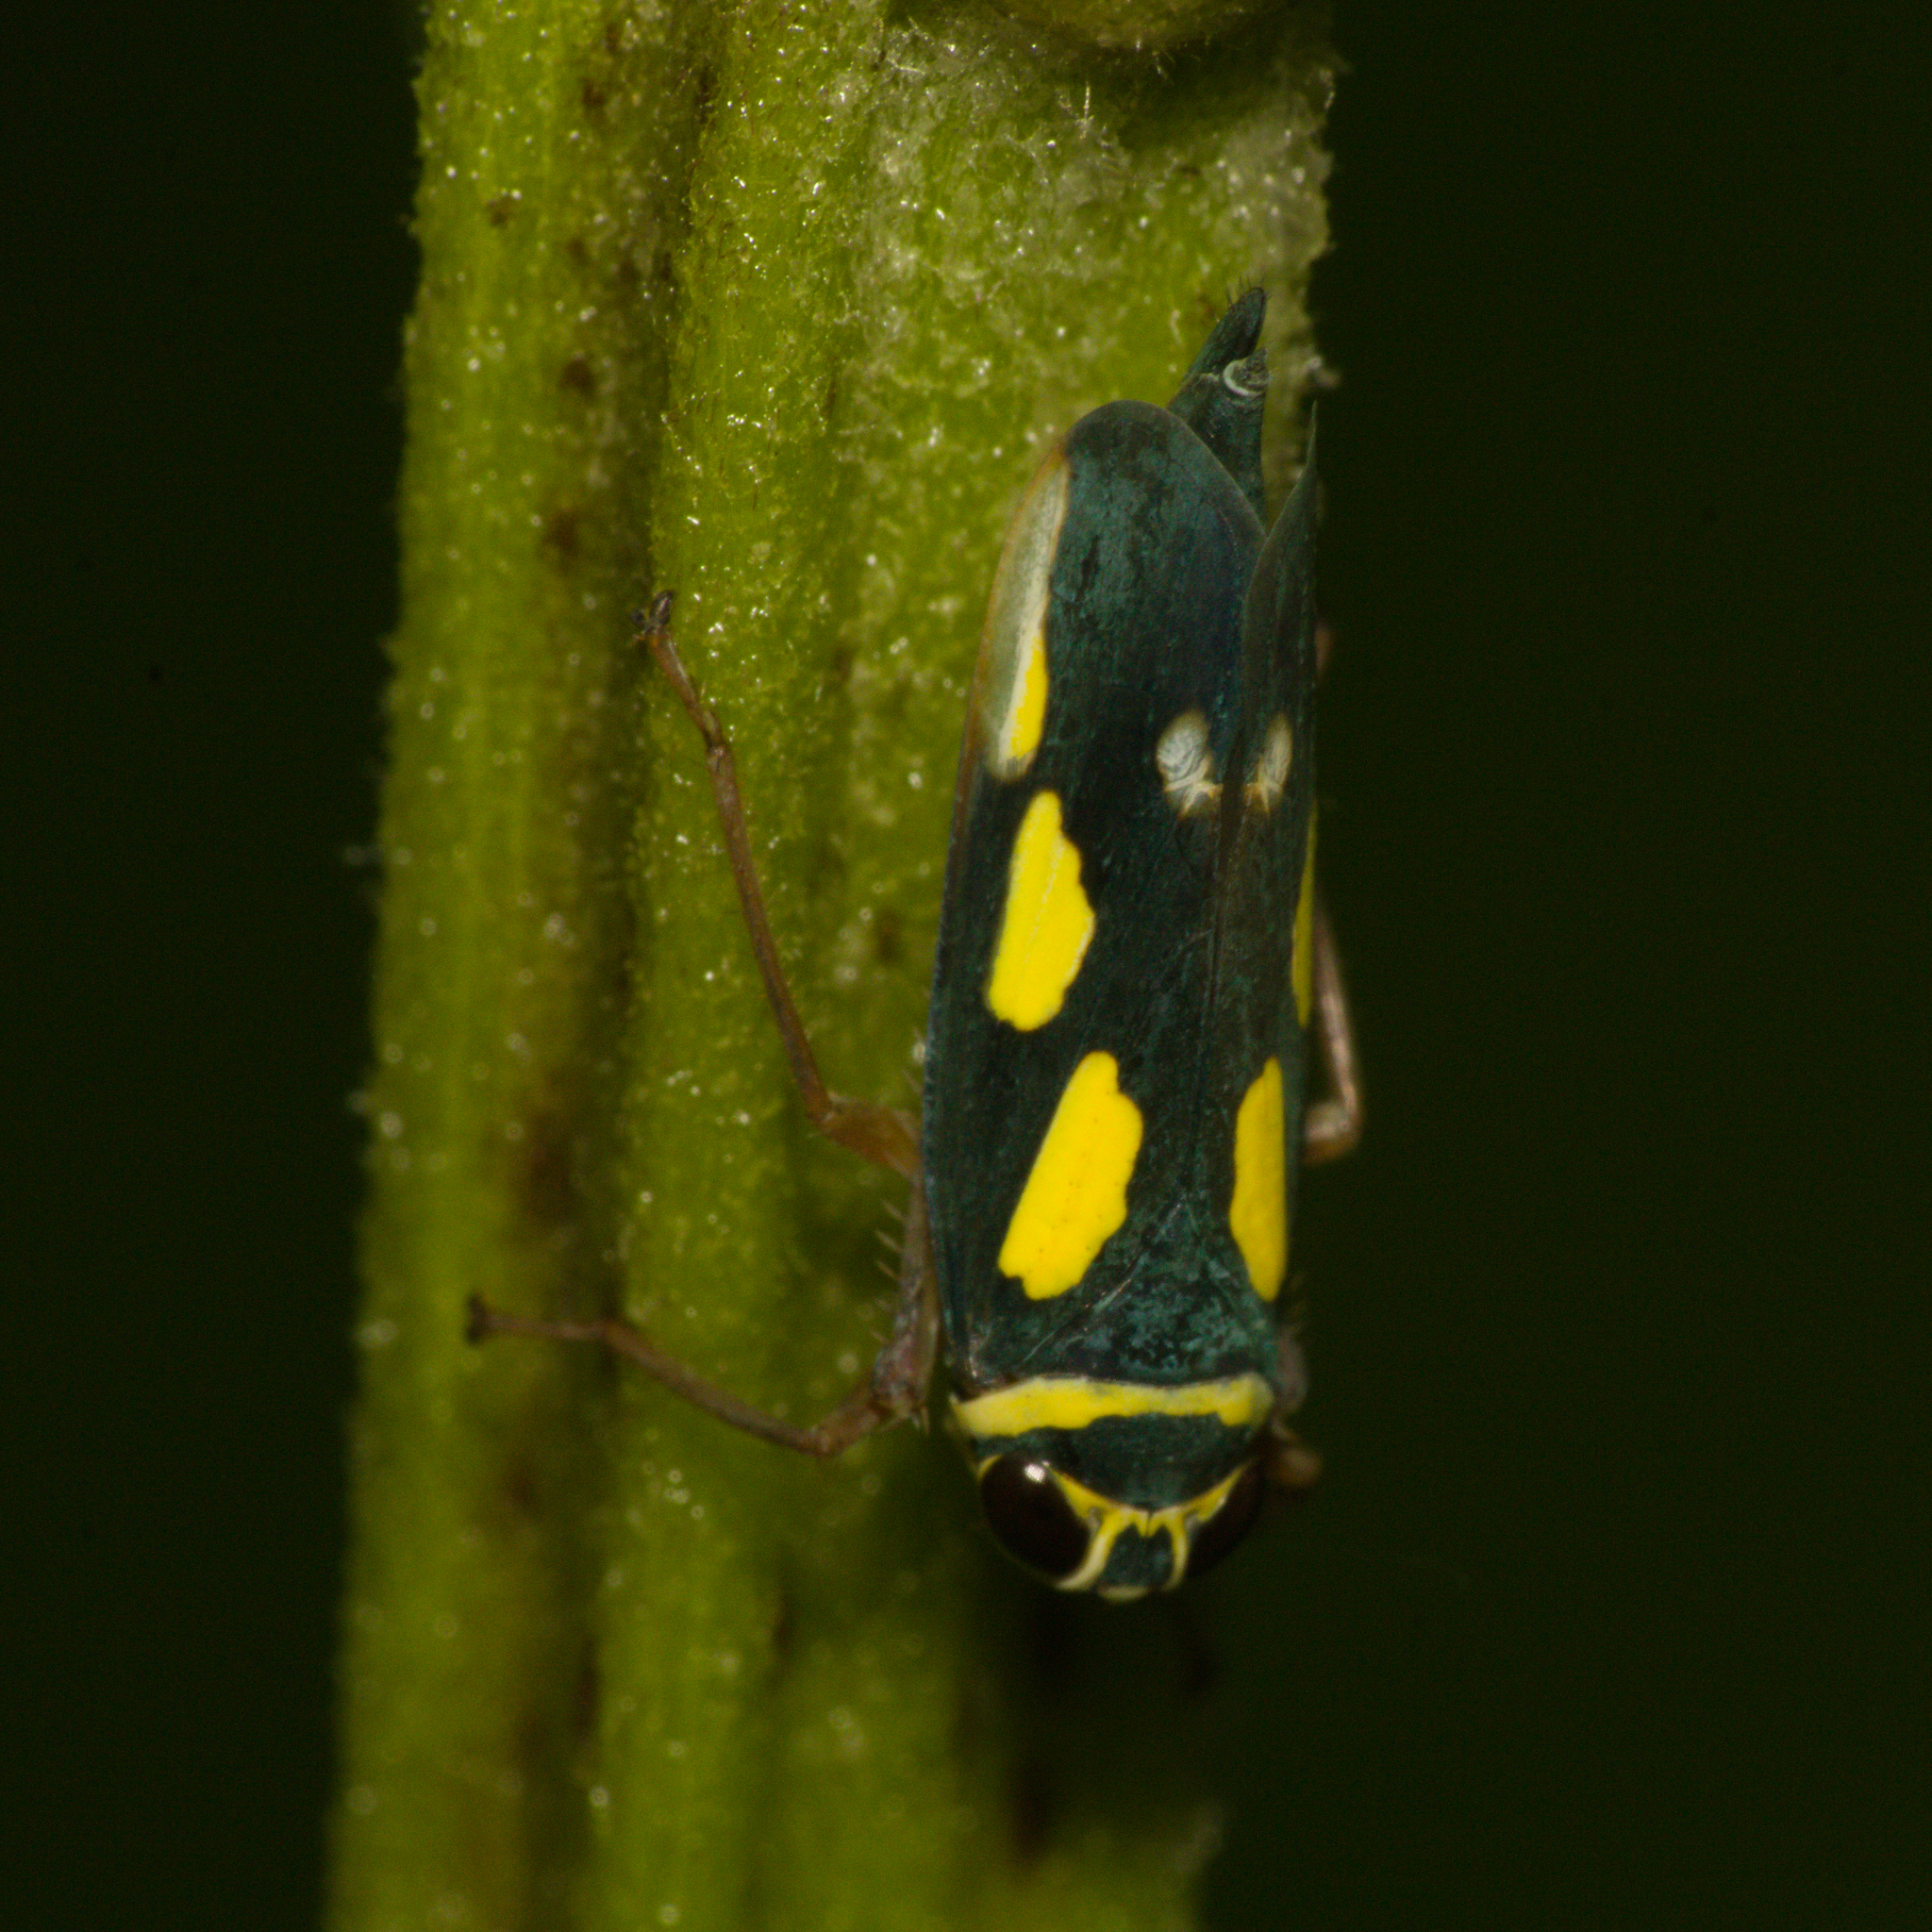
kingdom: Animalia
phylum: Arthropoda
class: Insecta
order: Hemiptera
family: Cicadellidae
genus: Jassolidia
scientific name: Jassolidia munda
